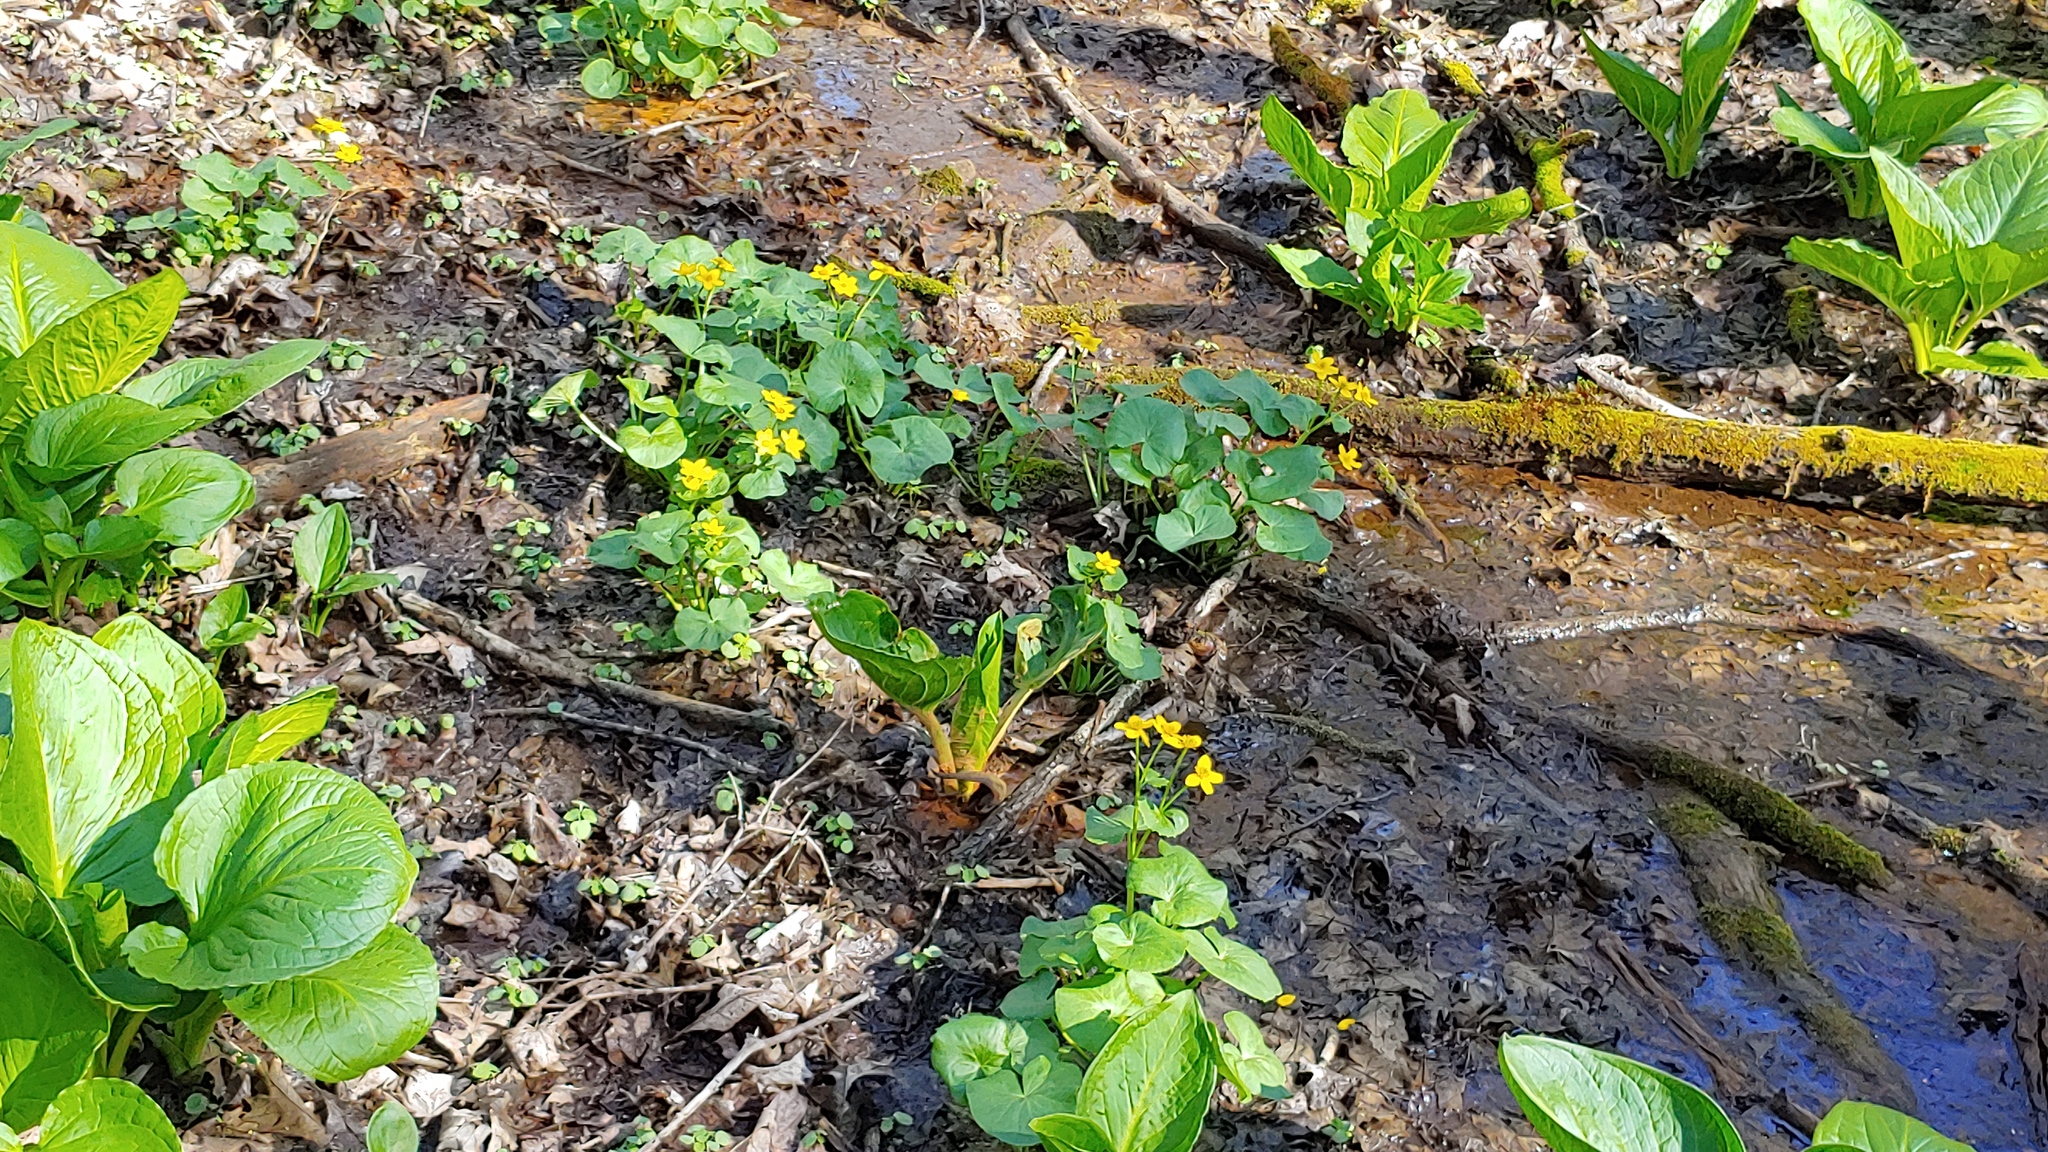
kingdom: Plantae
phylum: Tracheophyta
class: Magnoliopsida
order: Ranunculales
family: Ranunculaceae
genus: Caltha
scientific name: Caltha palustris
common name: Marsh marigold
